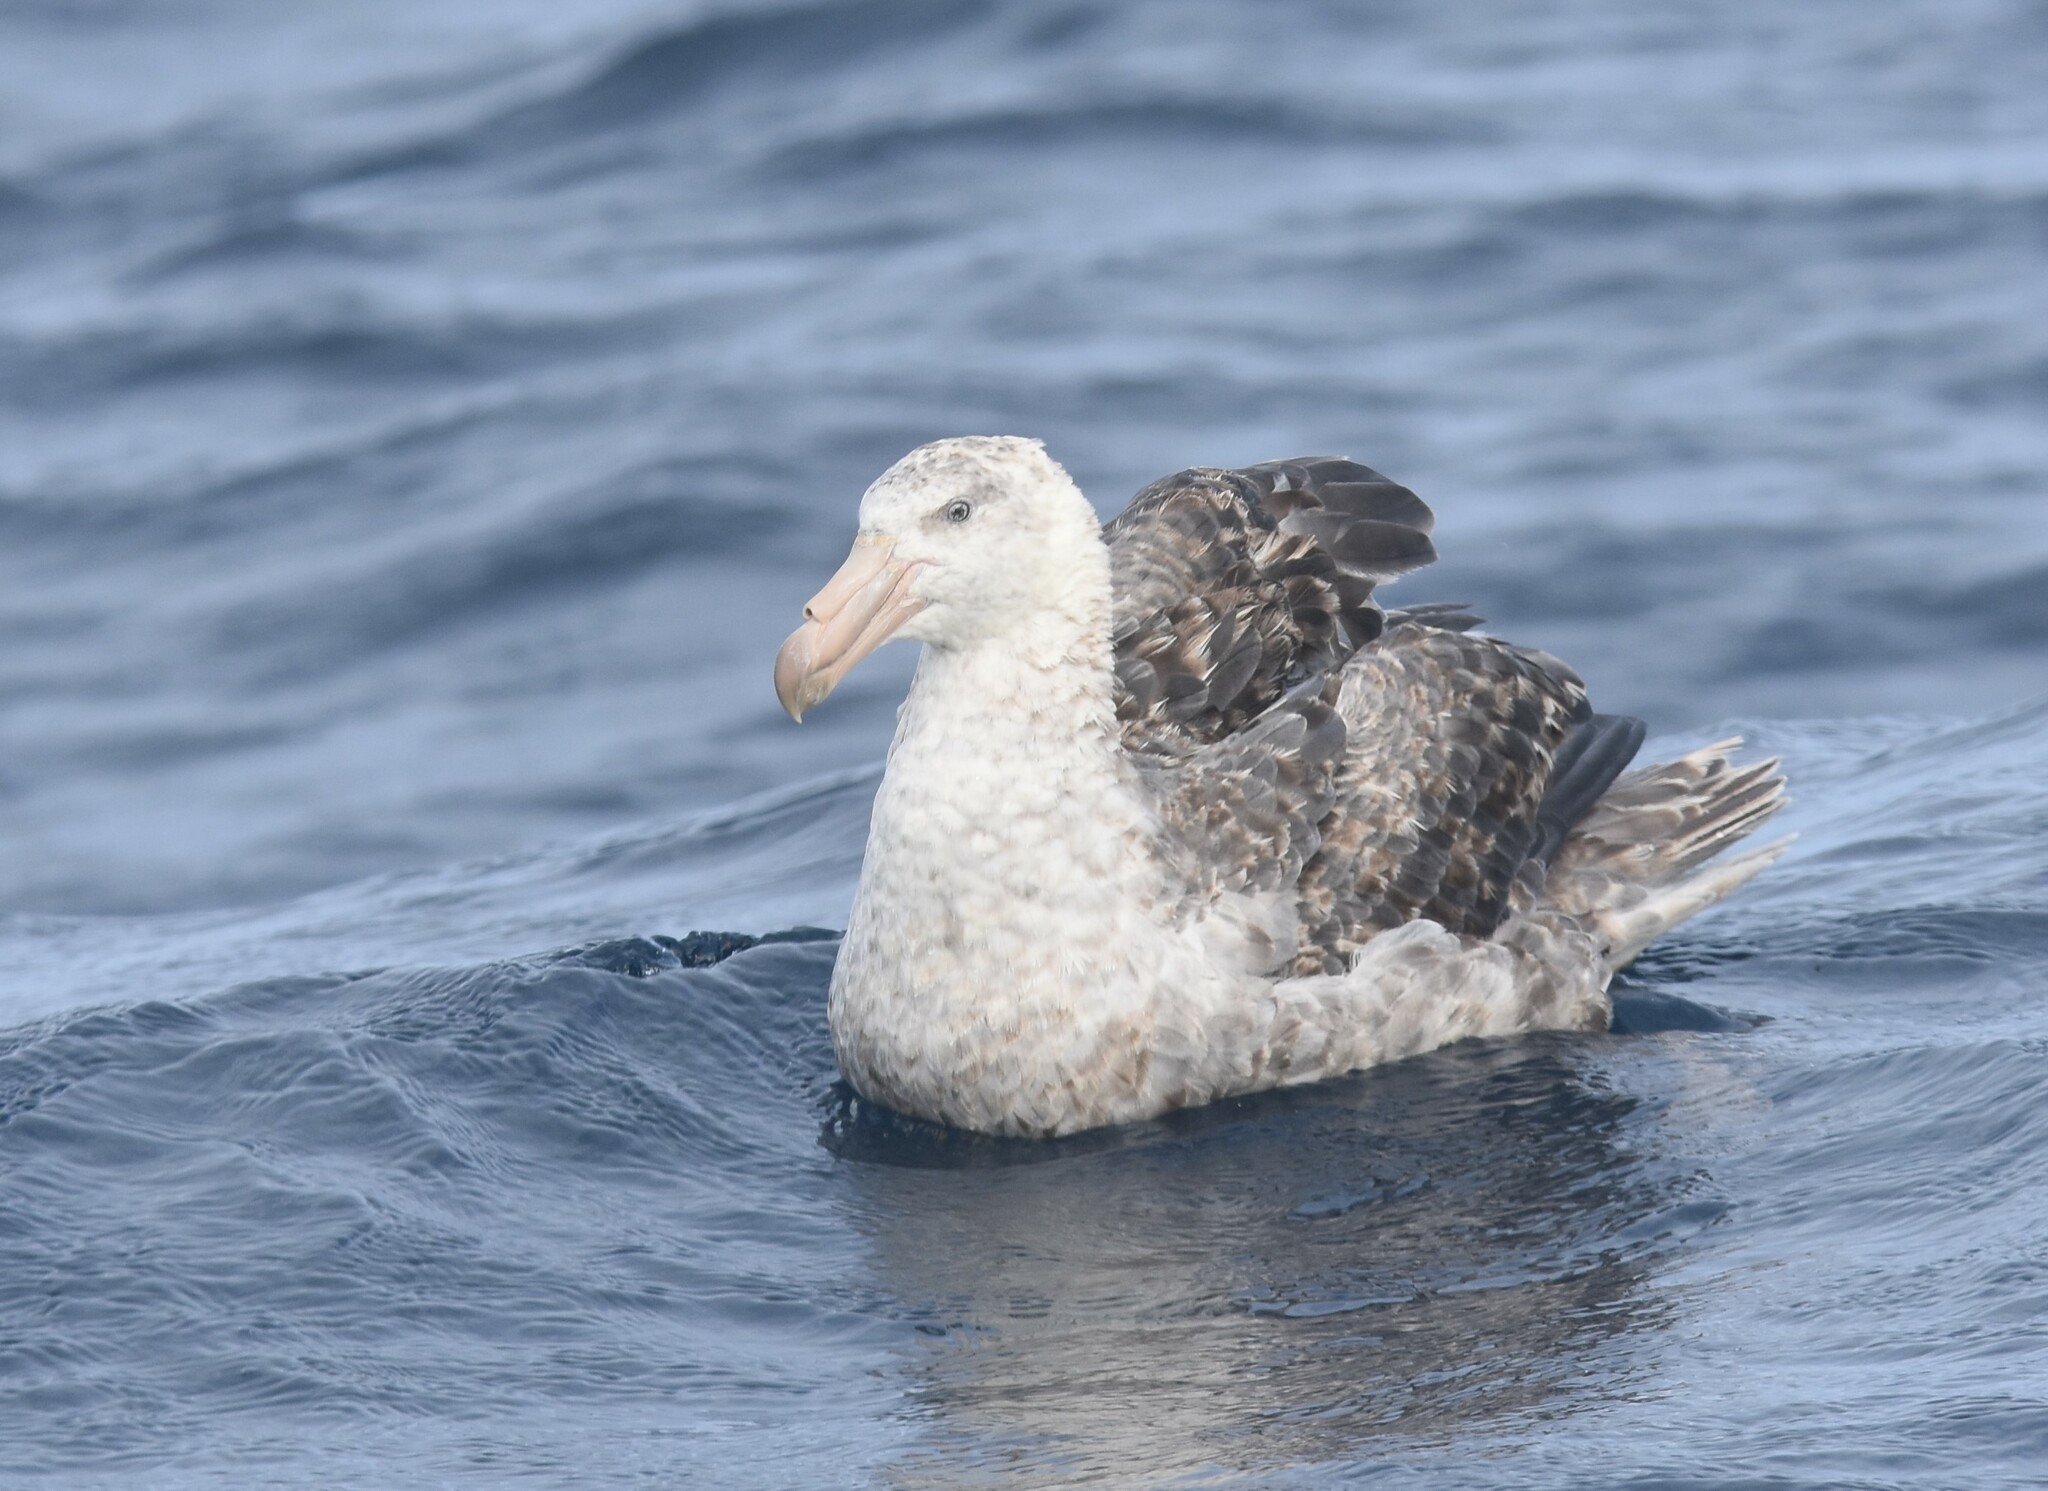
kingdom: Animalia
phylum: Chordata
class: Aves
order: Procellariiformes
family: Procellariidae
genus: Macronectes
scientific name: Macronectes halli
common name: Northern giant petrel
